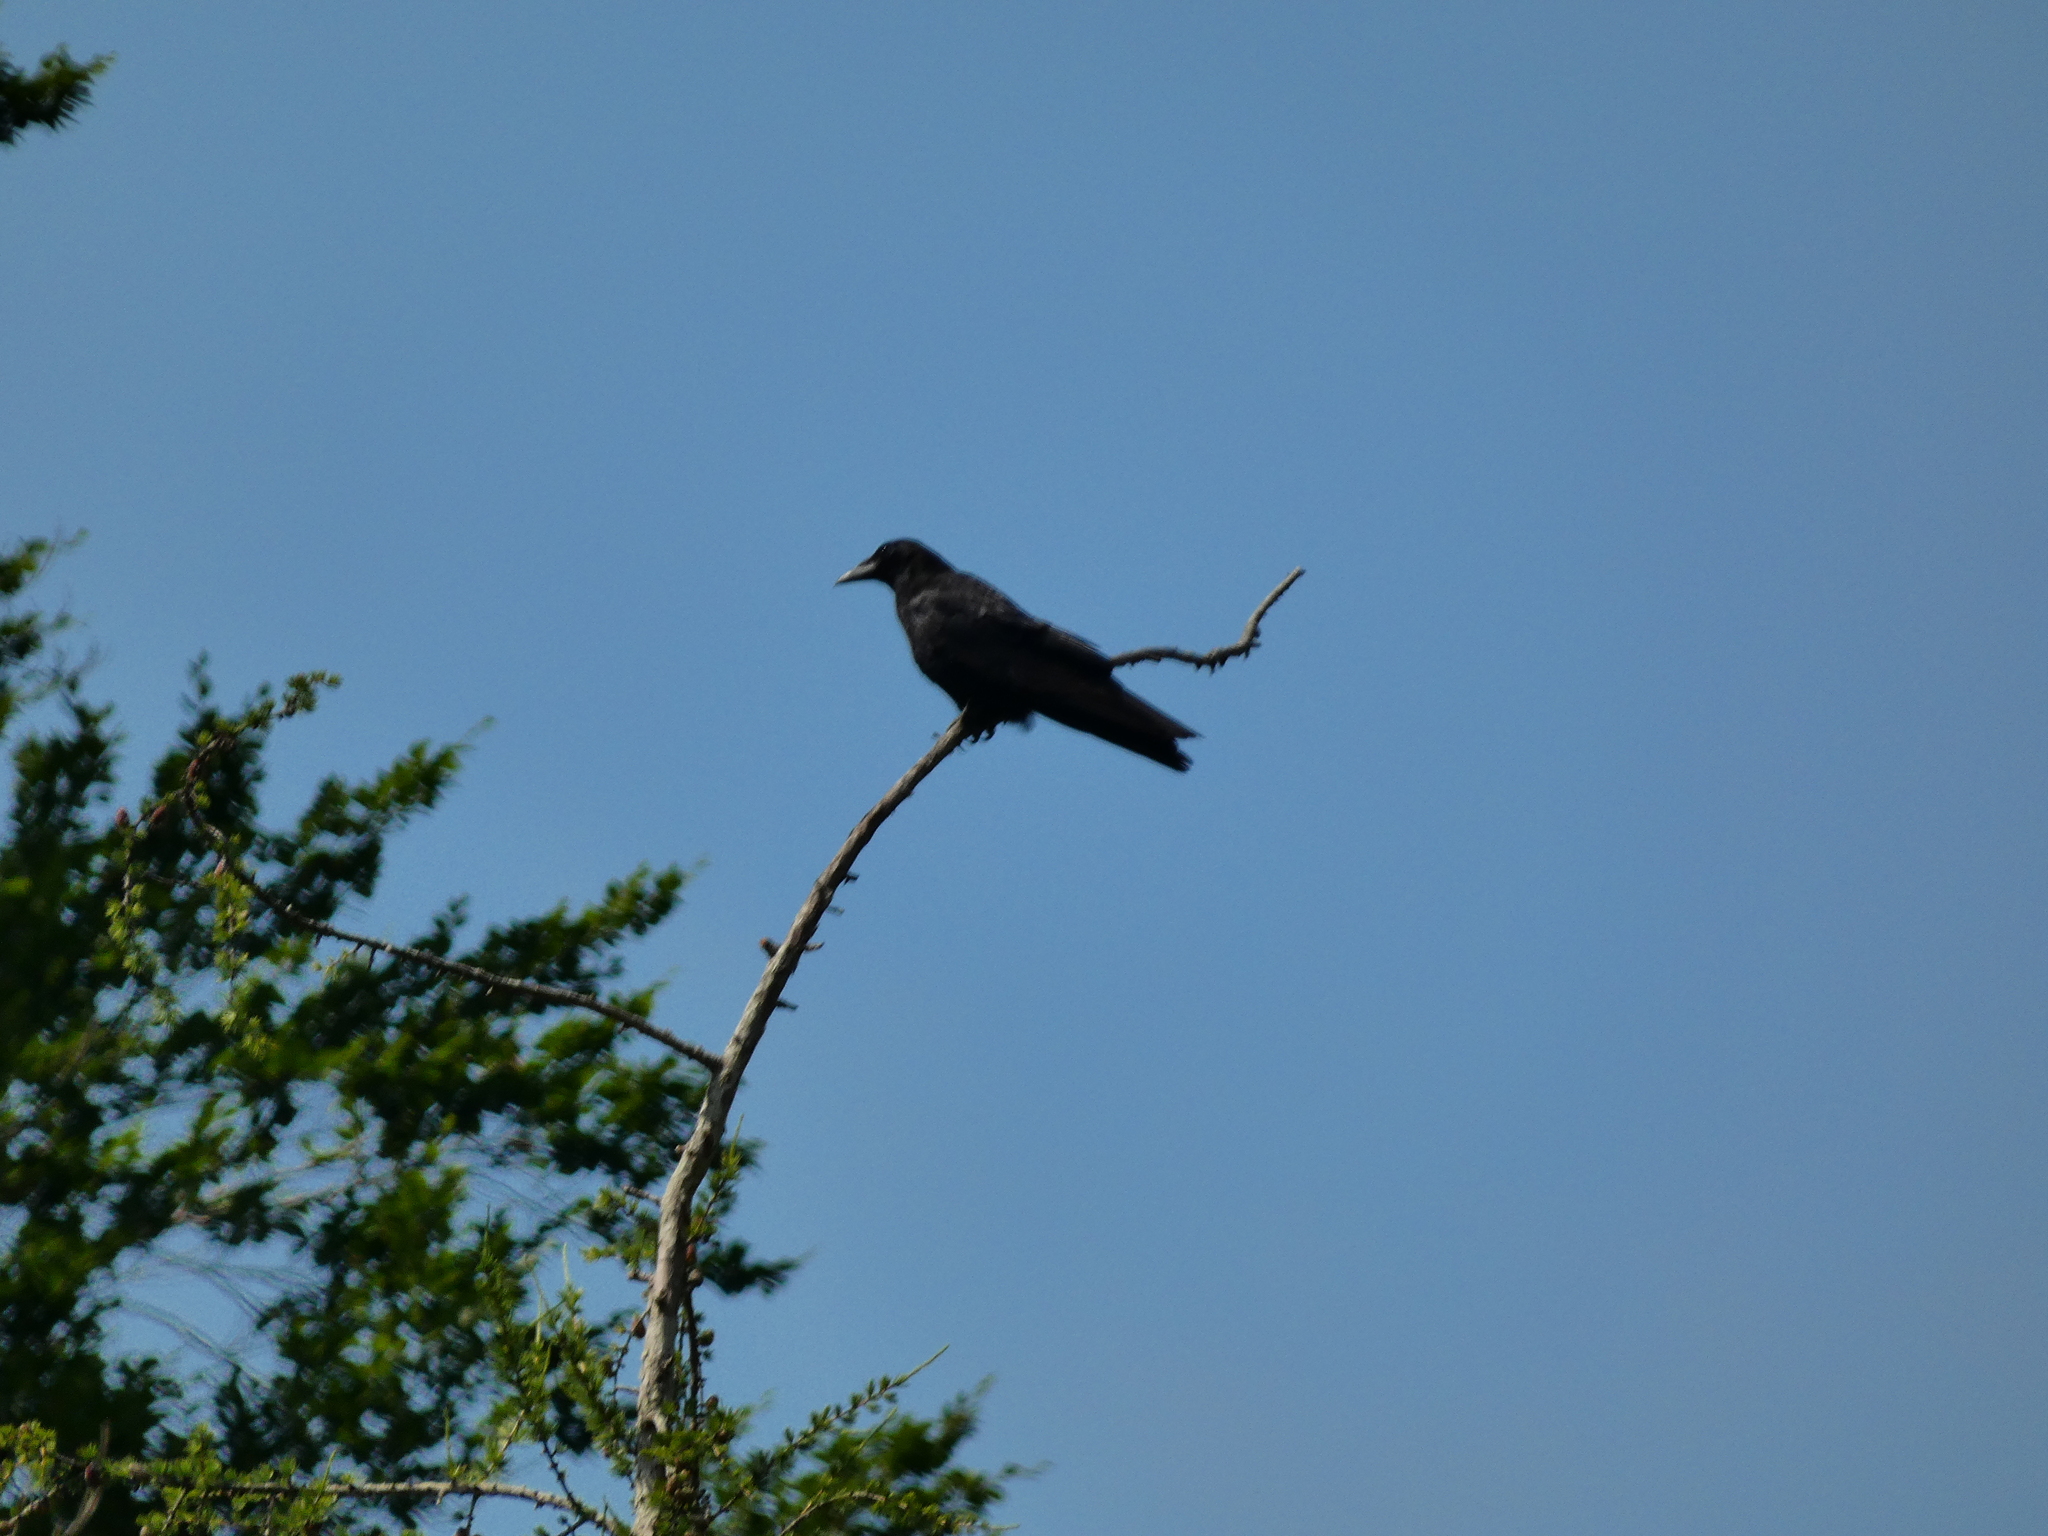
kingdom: Animalia
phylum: Chordata
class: Aves
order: Passeriformes
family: Corvidae
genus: Corvus
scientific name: Corvus corone
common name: Carrion crow
